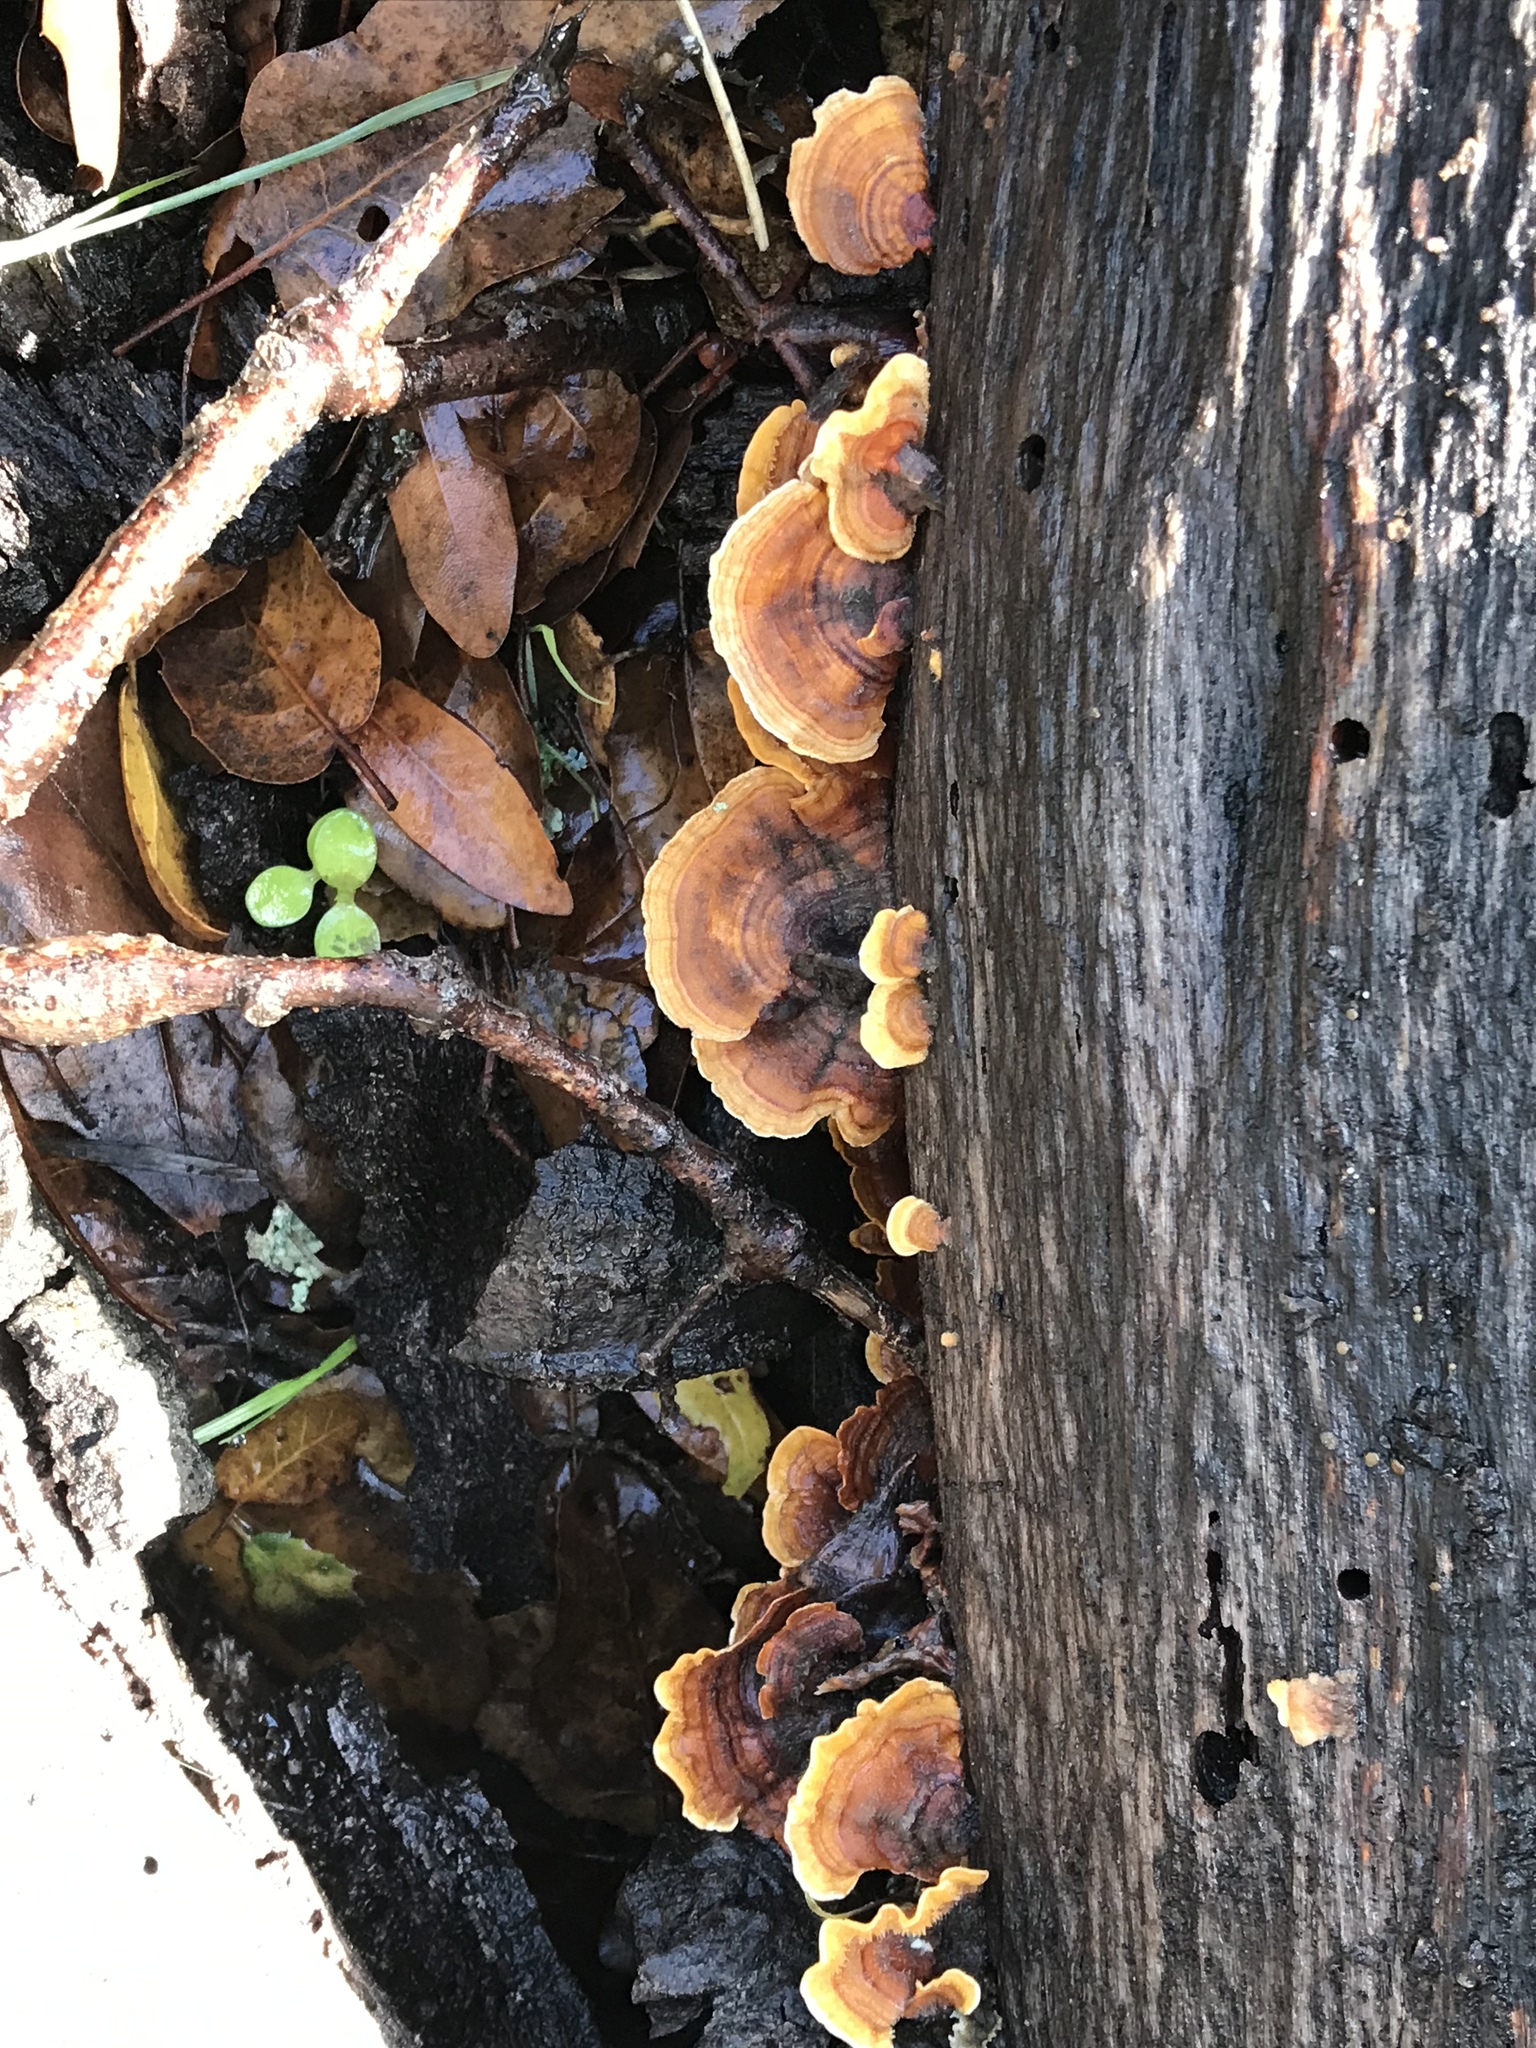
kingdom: Fungi
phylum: Basidiomycota
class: Agaricomycetes
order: Russulales
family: Stereaceae
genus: Stereum
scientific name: Stereum hirsutum
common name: Hairy curtain crust
